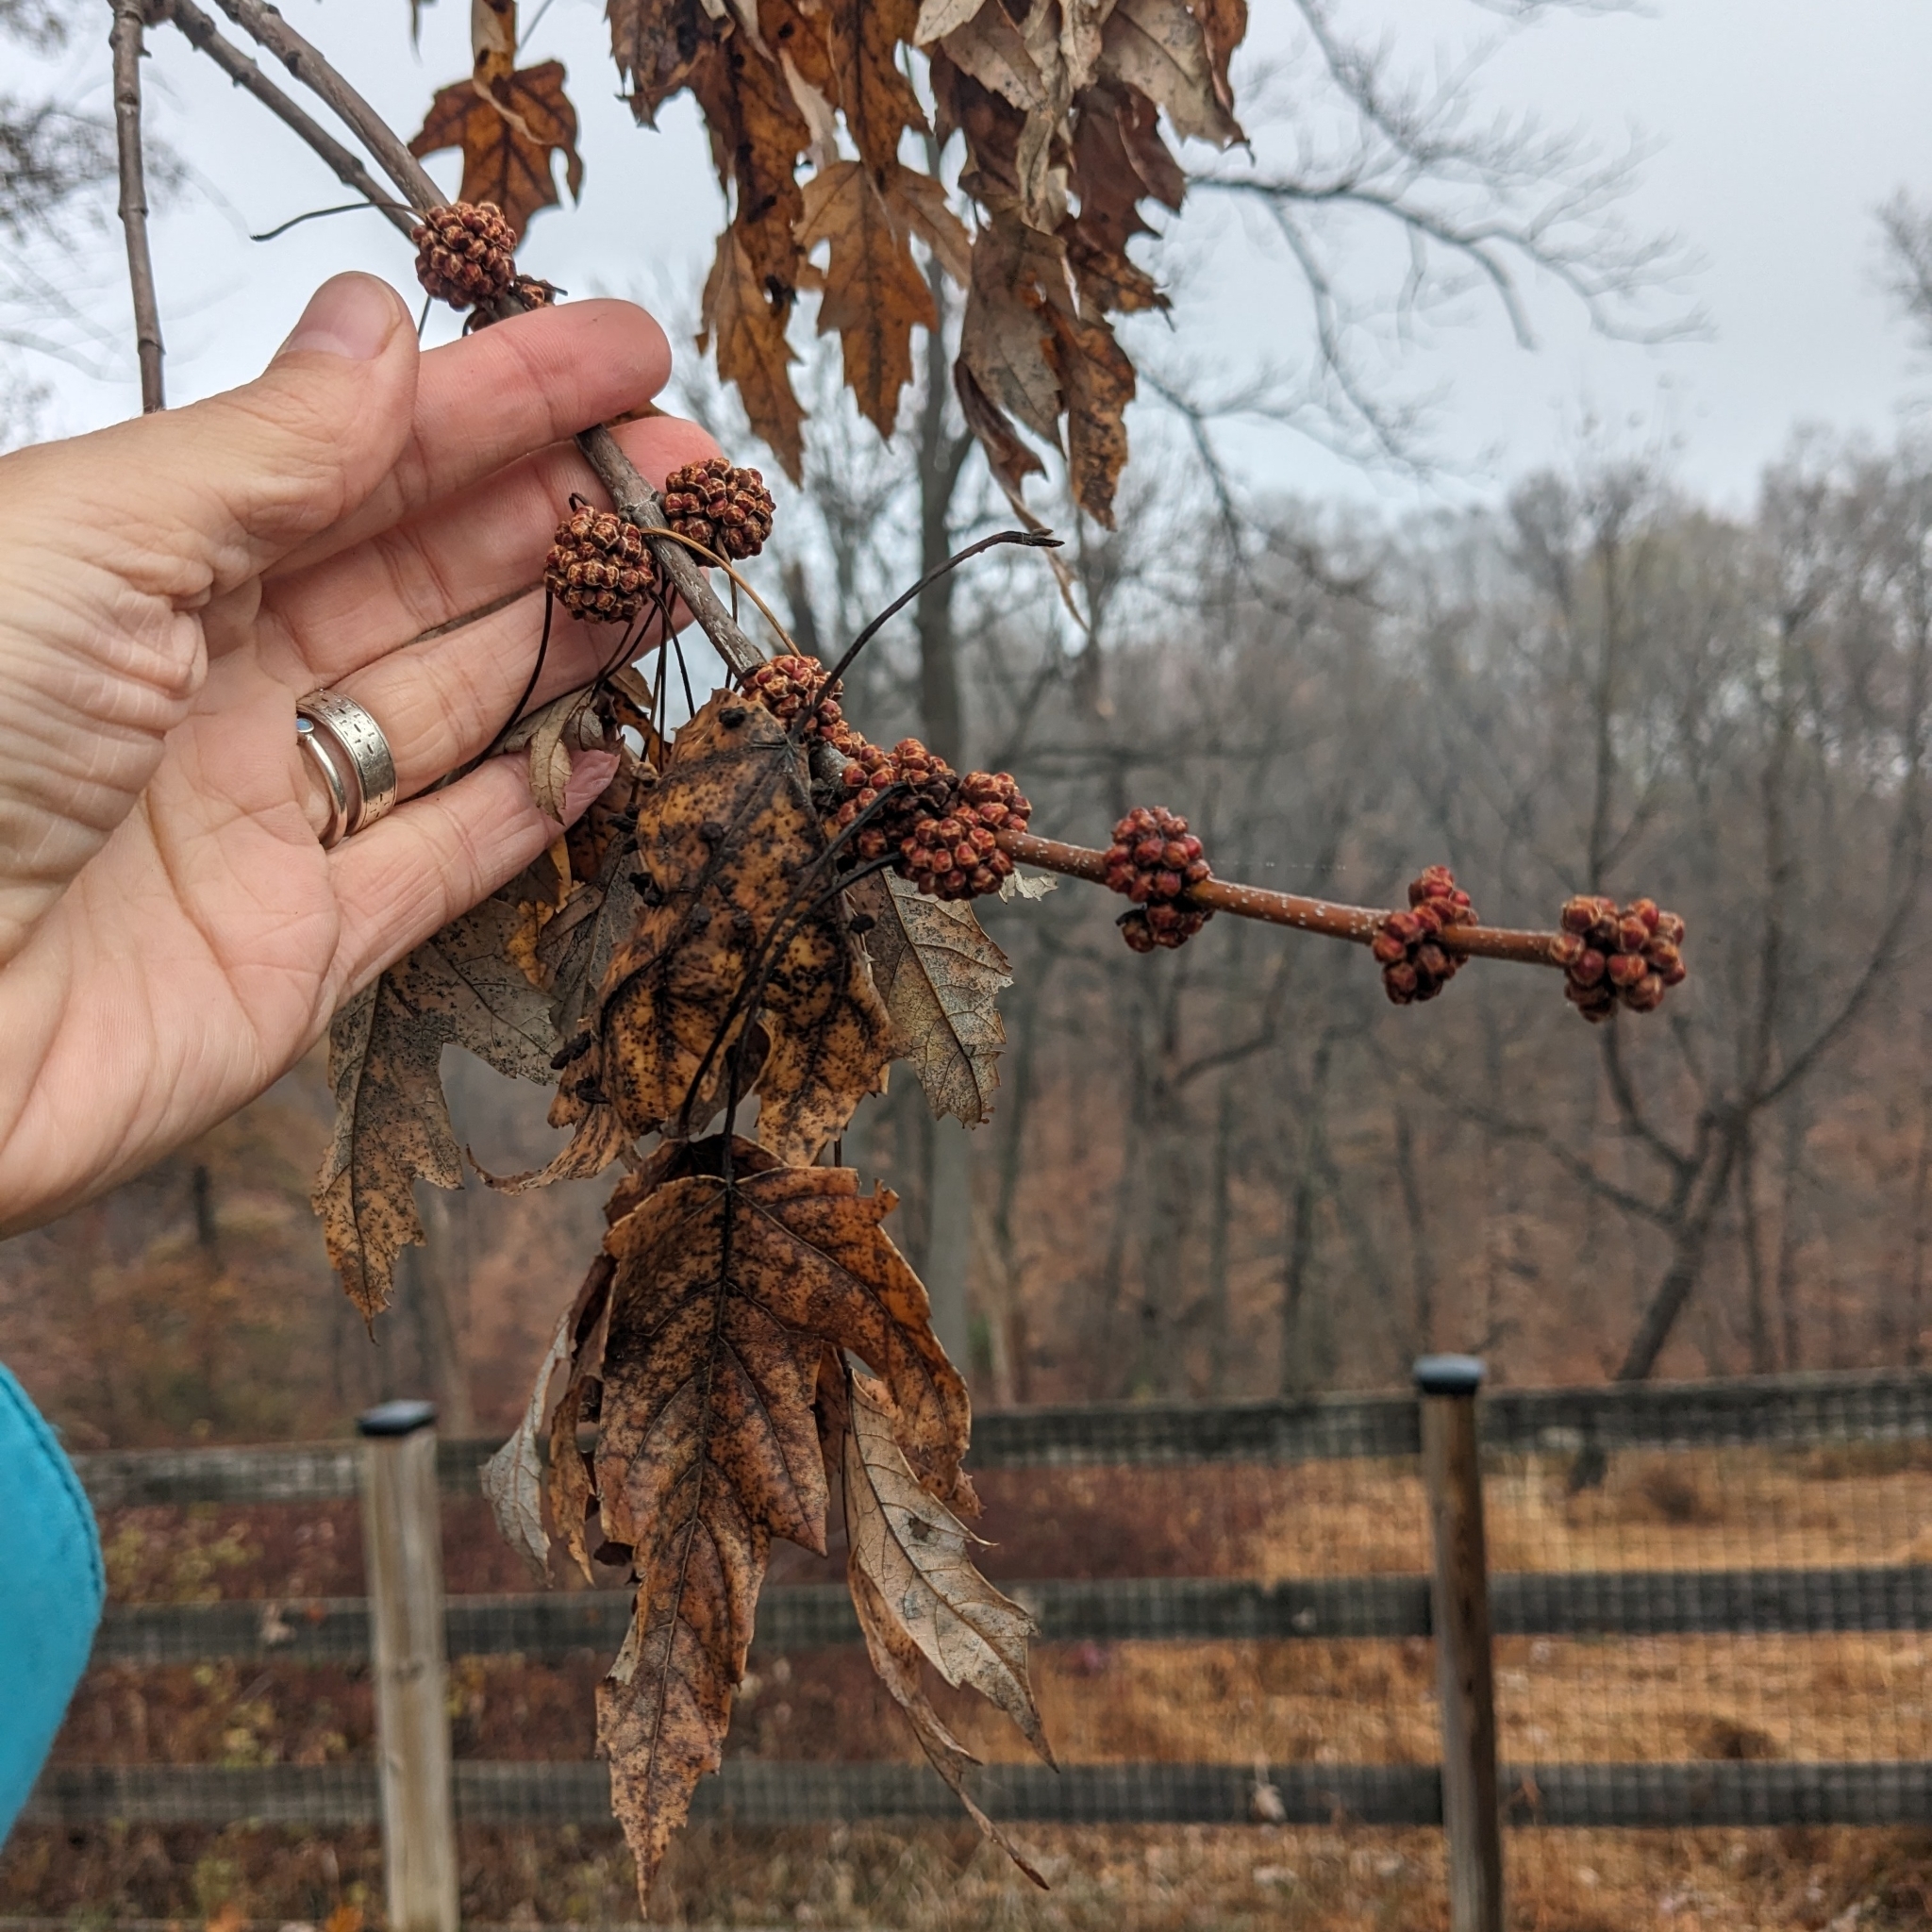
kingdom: Plantae
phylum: Tracheophyta
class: Magnoliopsida
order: Sapindales
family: Sapindaceae
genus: Acer
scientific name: Acer saccharinum
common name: Silver maple
